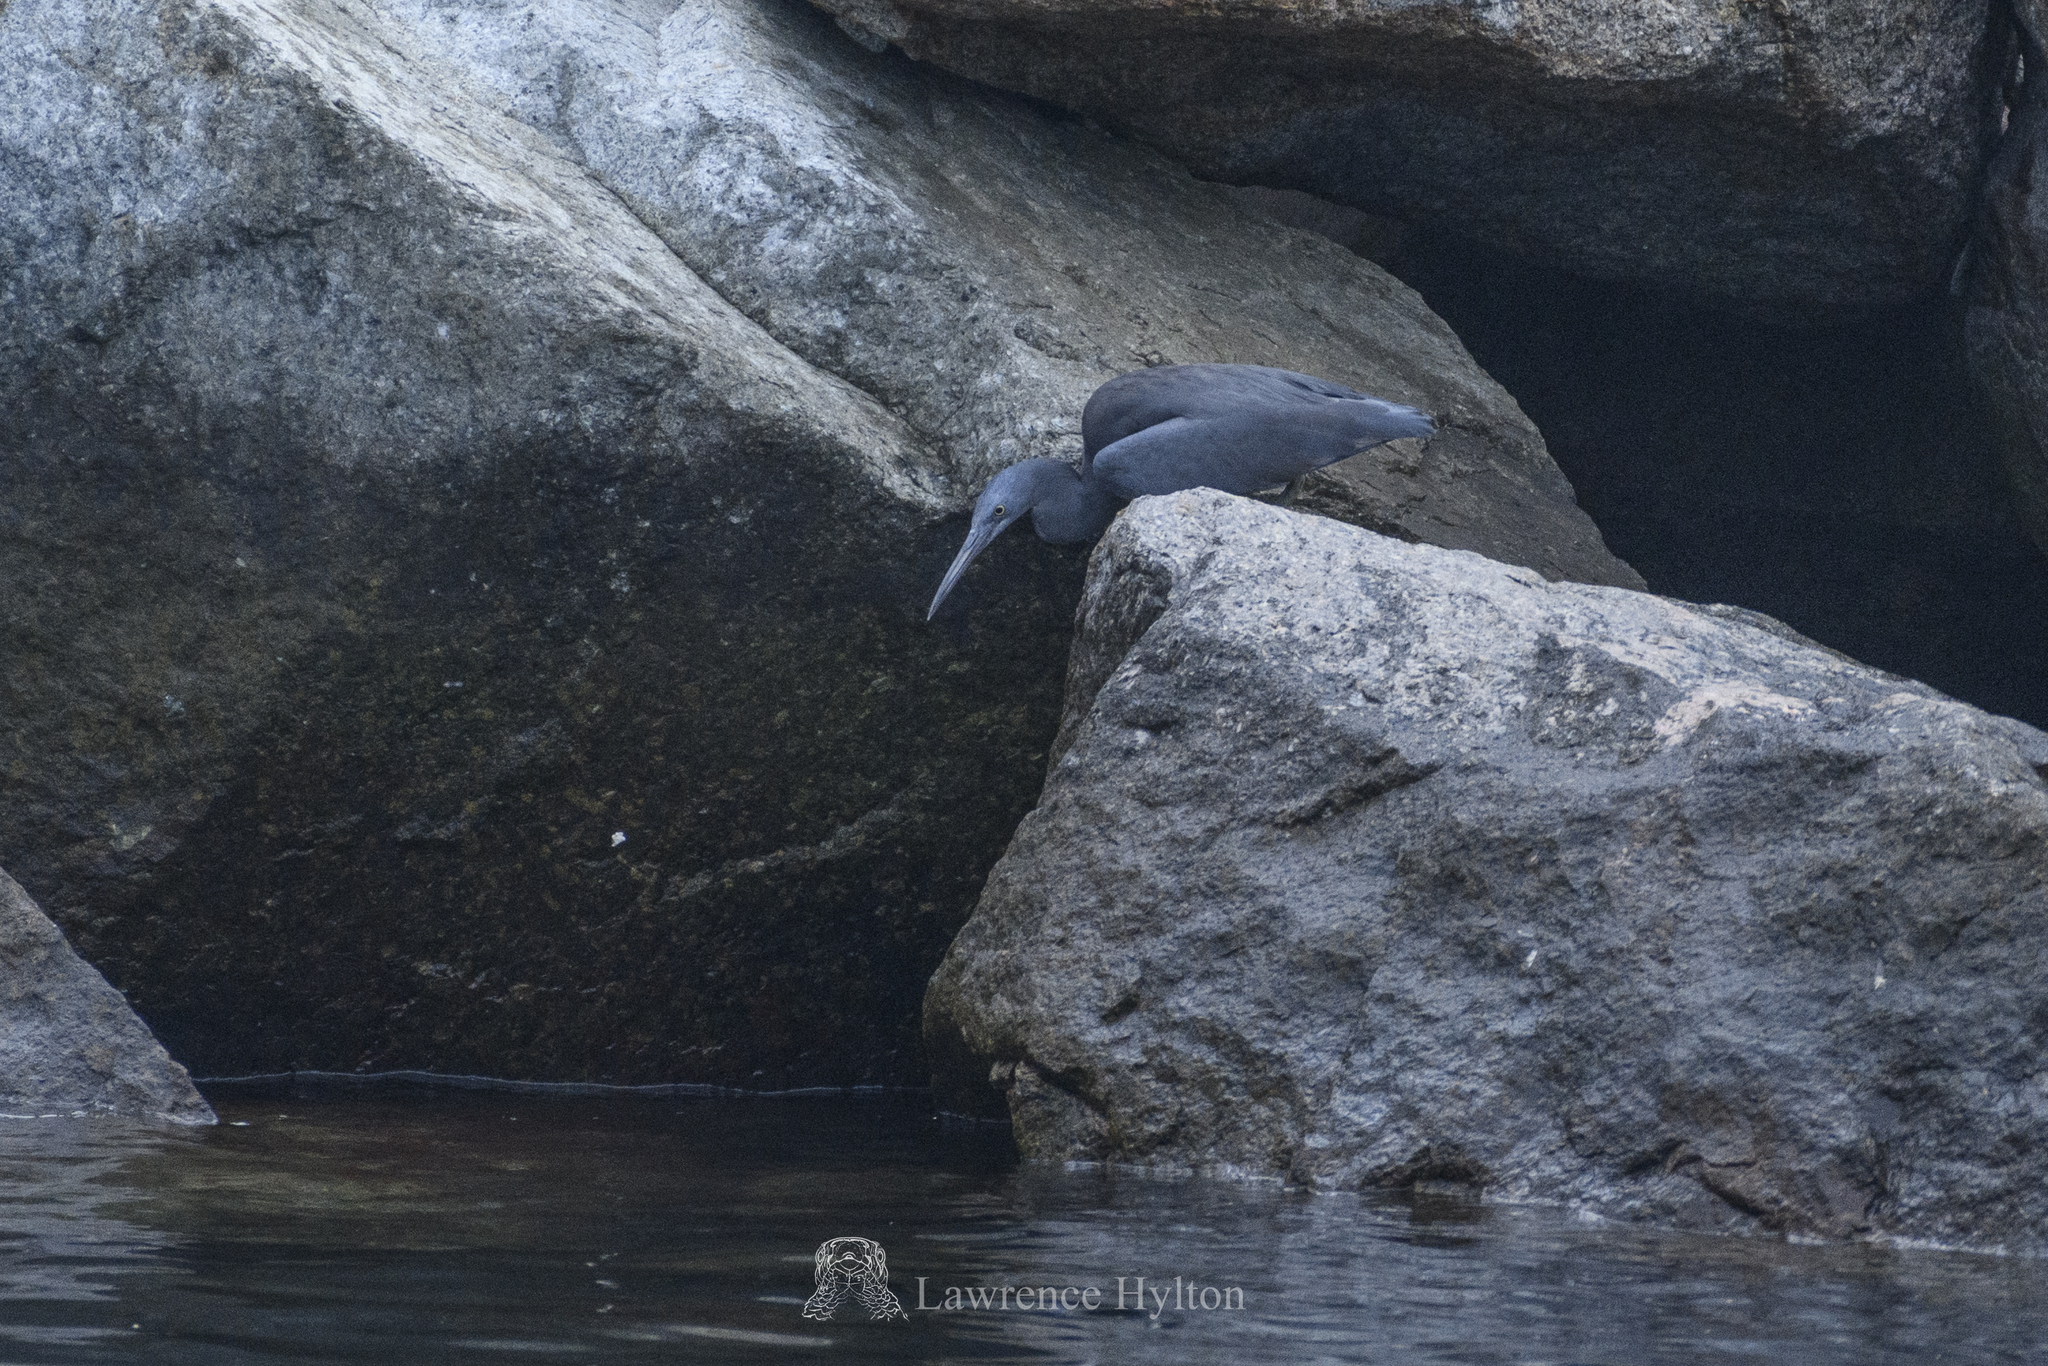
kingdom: Animalia
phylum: Chordata
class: Aves
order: Pelecaniformes
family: Ardeidae
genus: Egretta
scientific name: Egretta sacra
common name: Pacific reef heron
